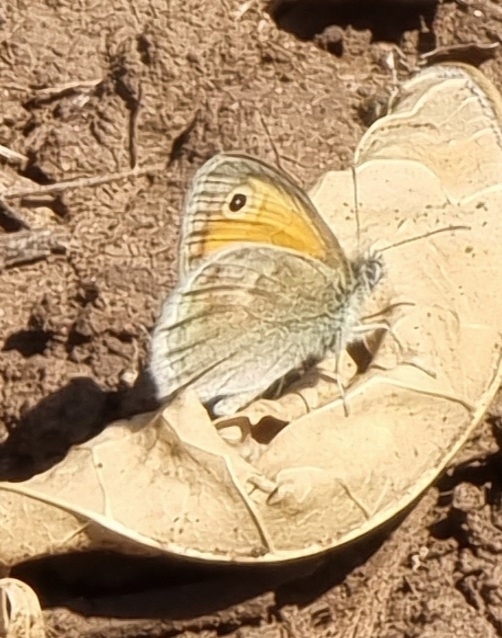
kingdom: Animalia
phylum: Arthropoda
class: Insecta
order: Lepidoptera
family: Nymphalidae
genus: Coenonympha
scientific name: Coenonympha pamphilus
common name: Small heath
